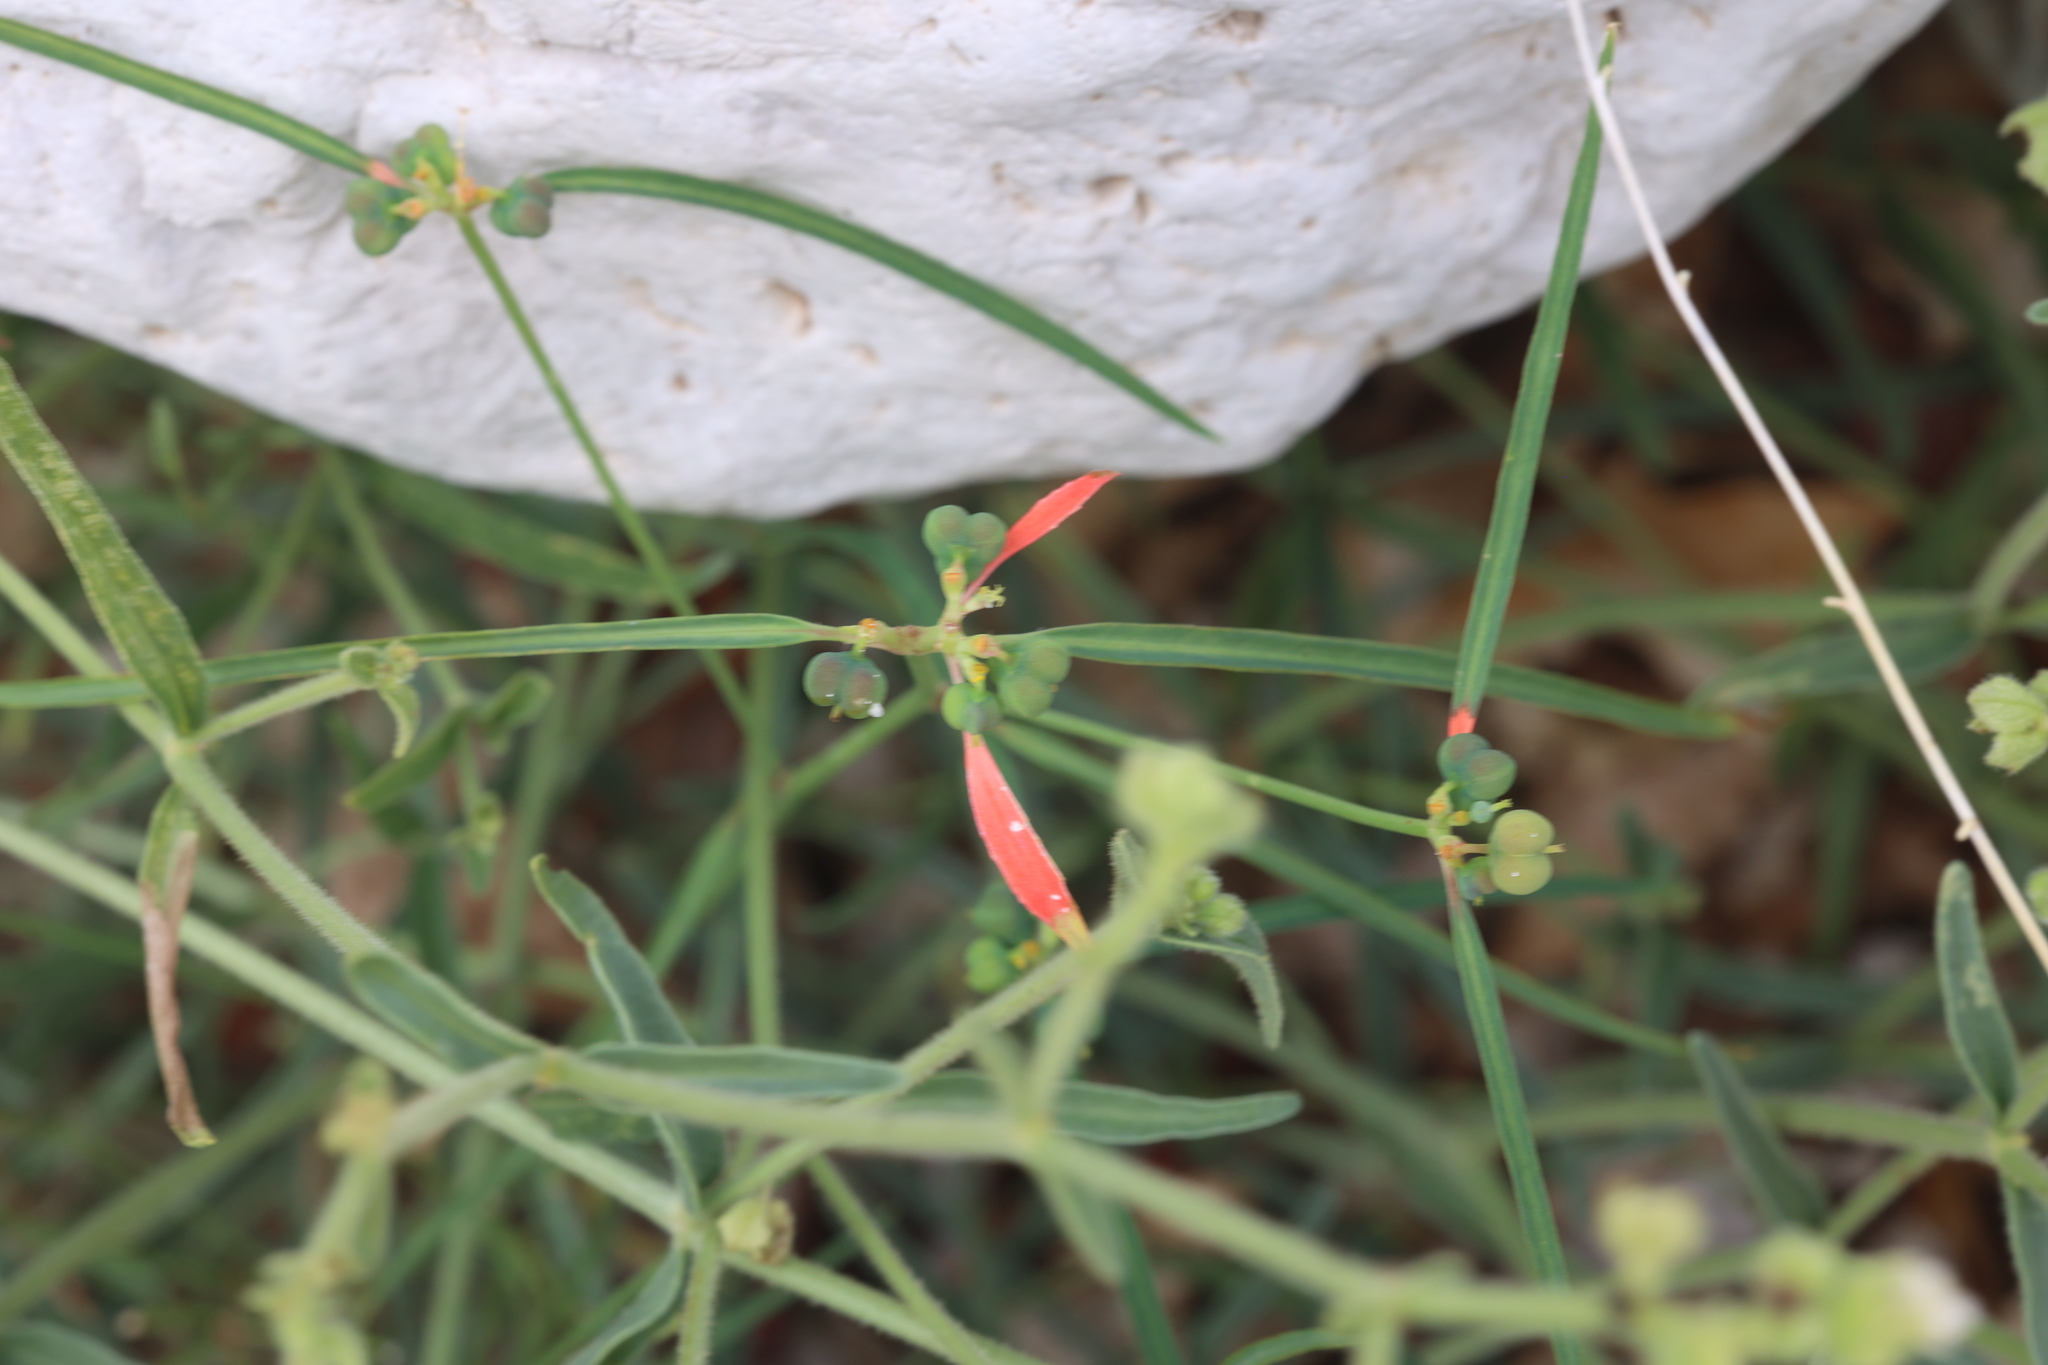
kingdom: Plantae
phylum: Tracheophyta
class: Magnoliopsida
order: Malpighiales
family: Euphorbiaceae
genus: Euphorbia
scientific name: Euphorbia heterophylla
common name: Mexican fireplant
